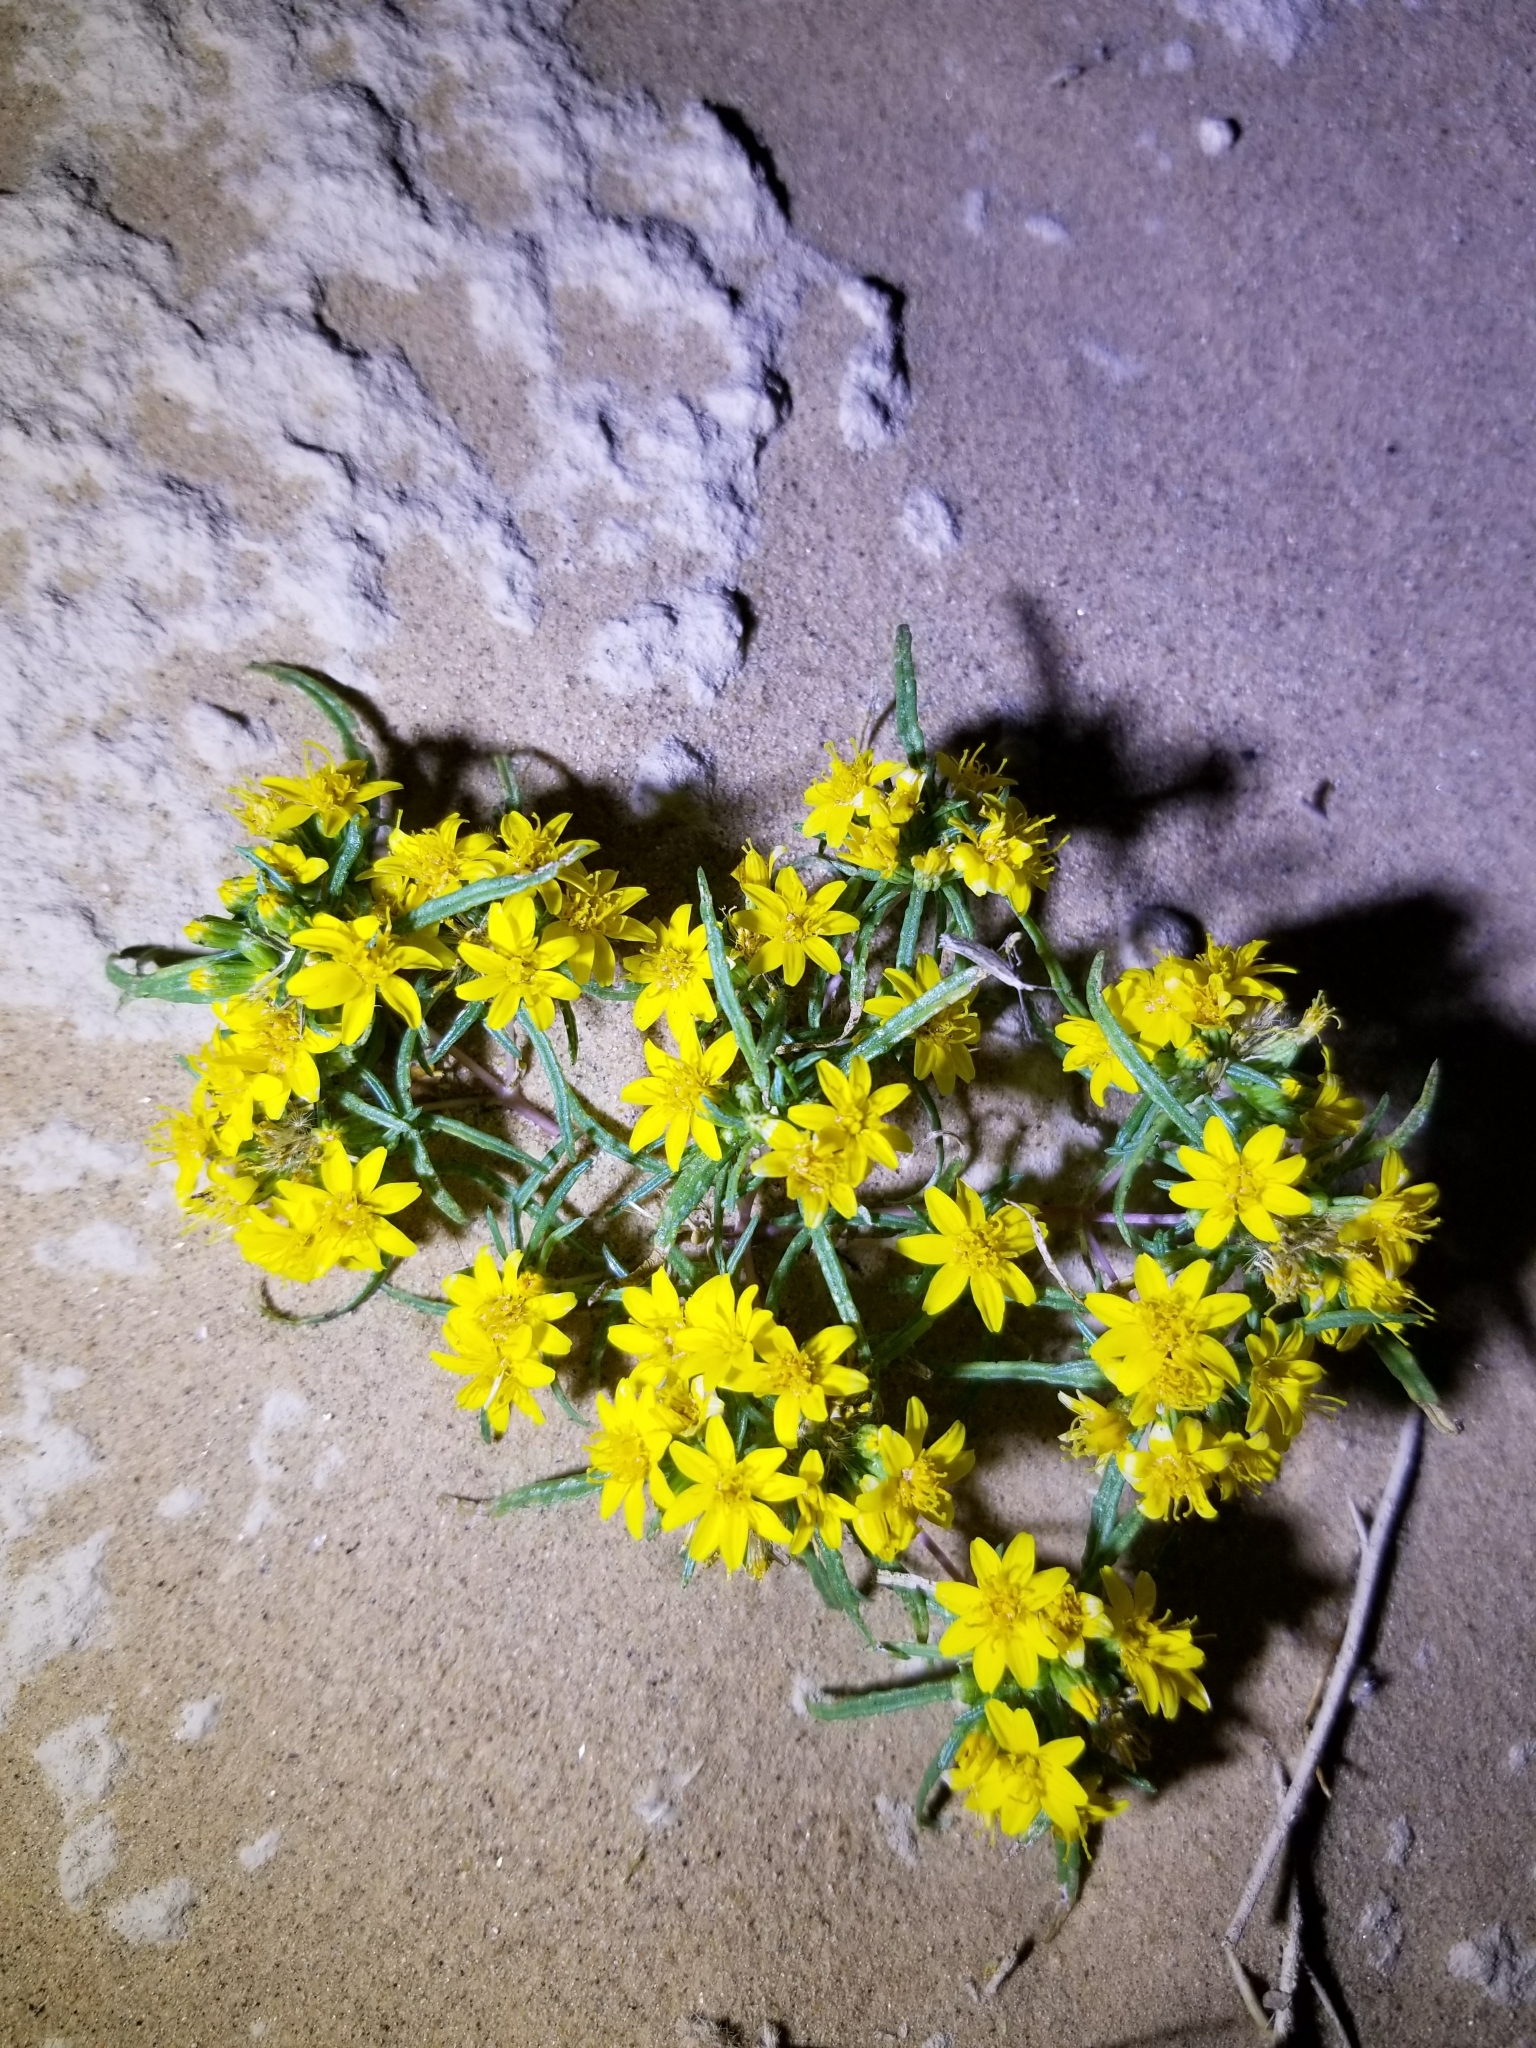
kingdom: Plantae
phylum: Tracheophyta
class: Magnoliopsida
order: Asterales
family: Asteraceae
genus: Pectis
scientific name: Pectis papposa
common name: Many-bristle chinchweed
